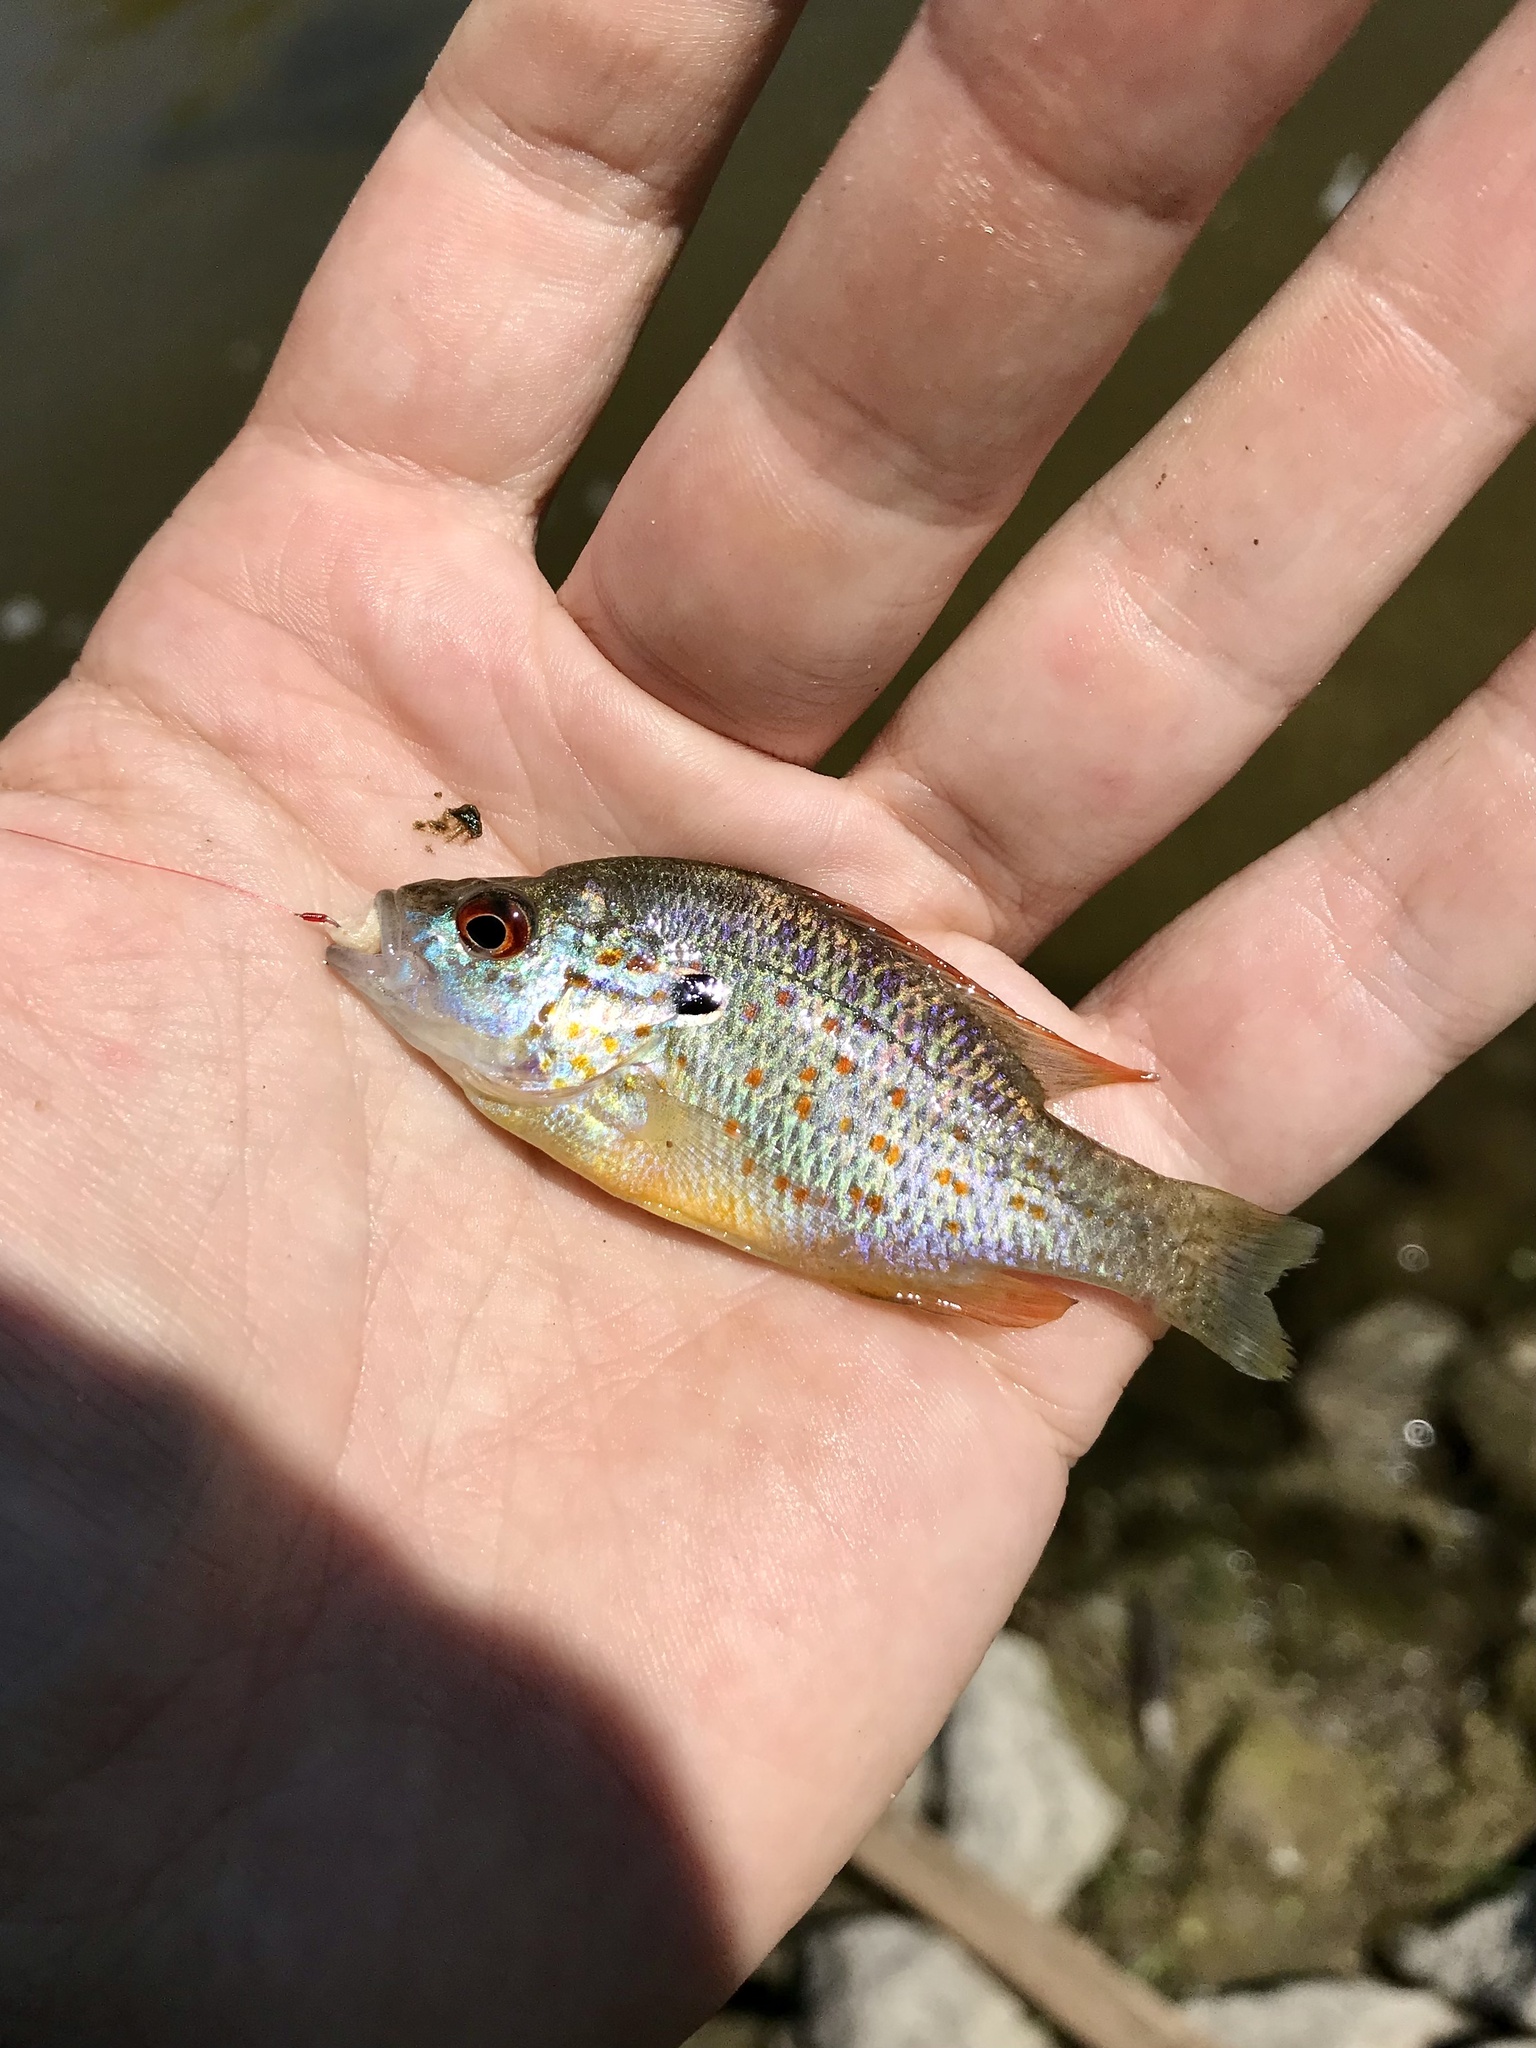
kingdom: Animalia
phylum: Chordata
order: Perciformes
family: Centrarchidae
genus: Lepomis
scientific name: Lepomis humilis
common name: Orangespotted sunfish
